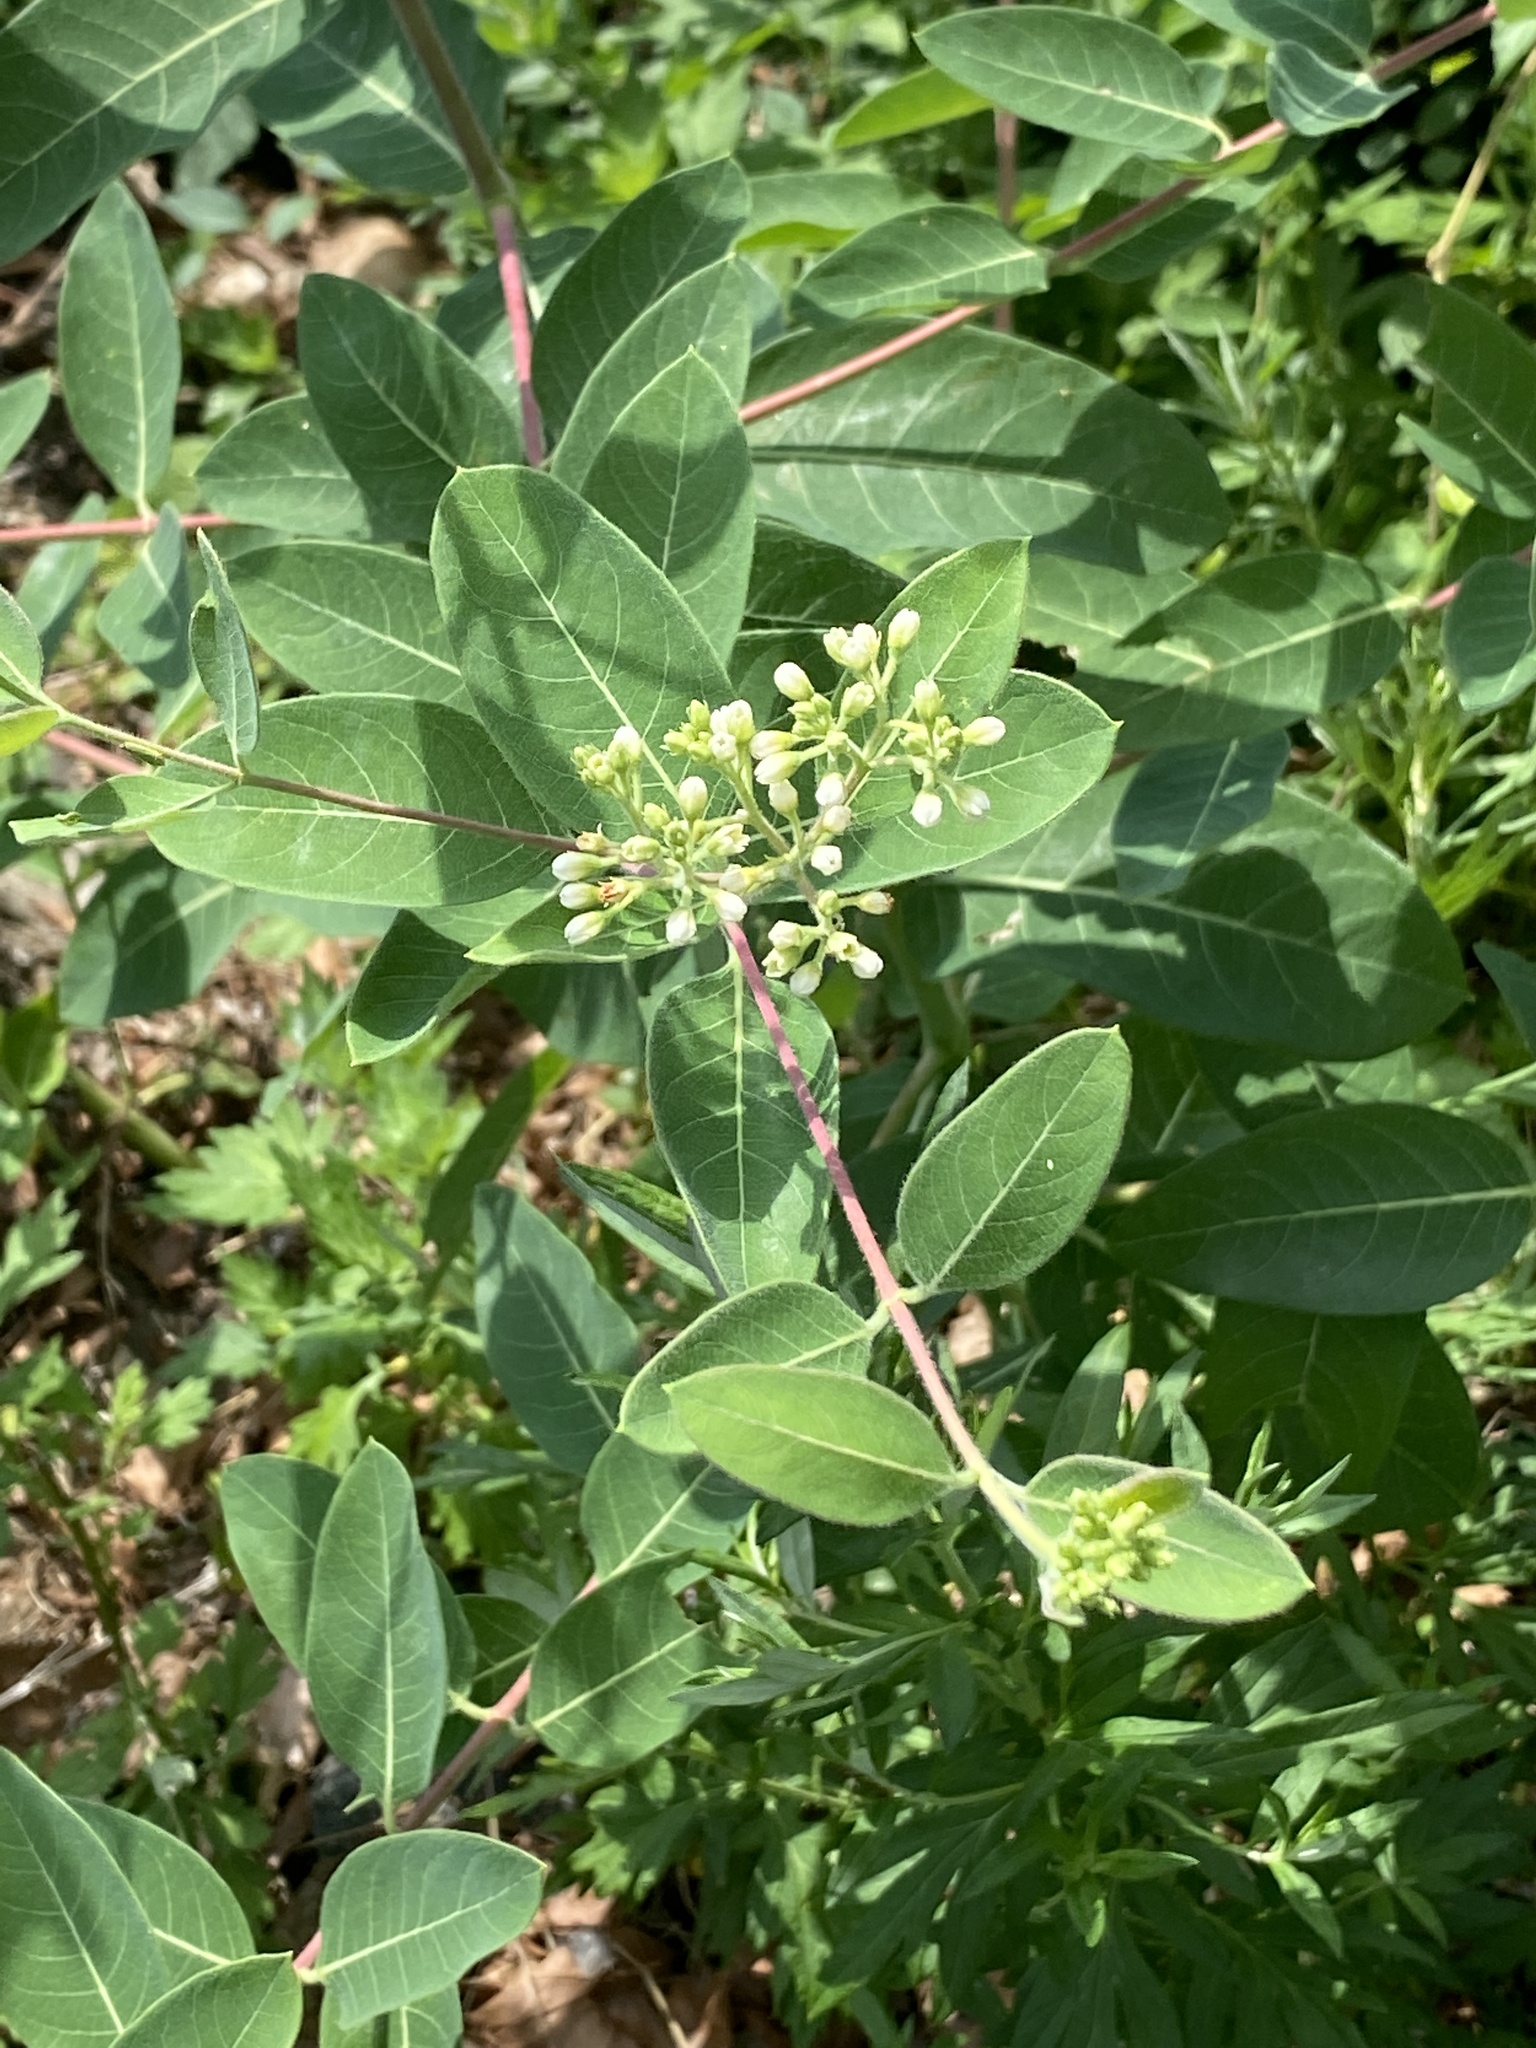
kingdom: Plantae
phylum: Tracheophyta
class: Magnoliopsida
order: Gentianales
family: Apocynaceae
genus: Apocynum
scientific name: Apocynum cannabinum
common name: Hemp dogbane
